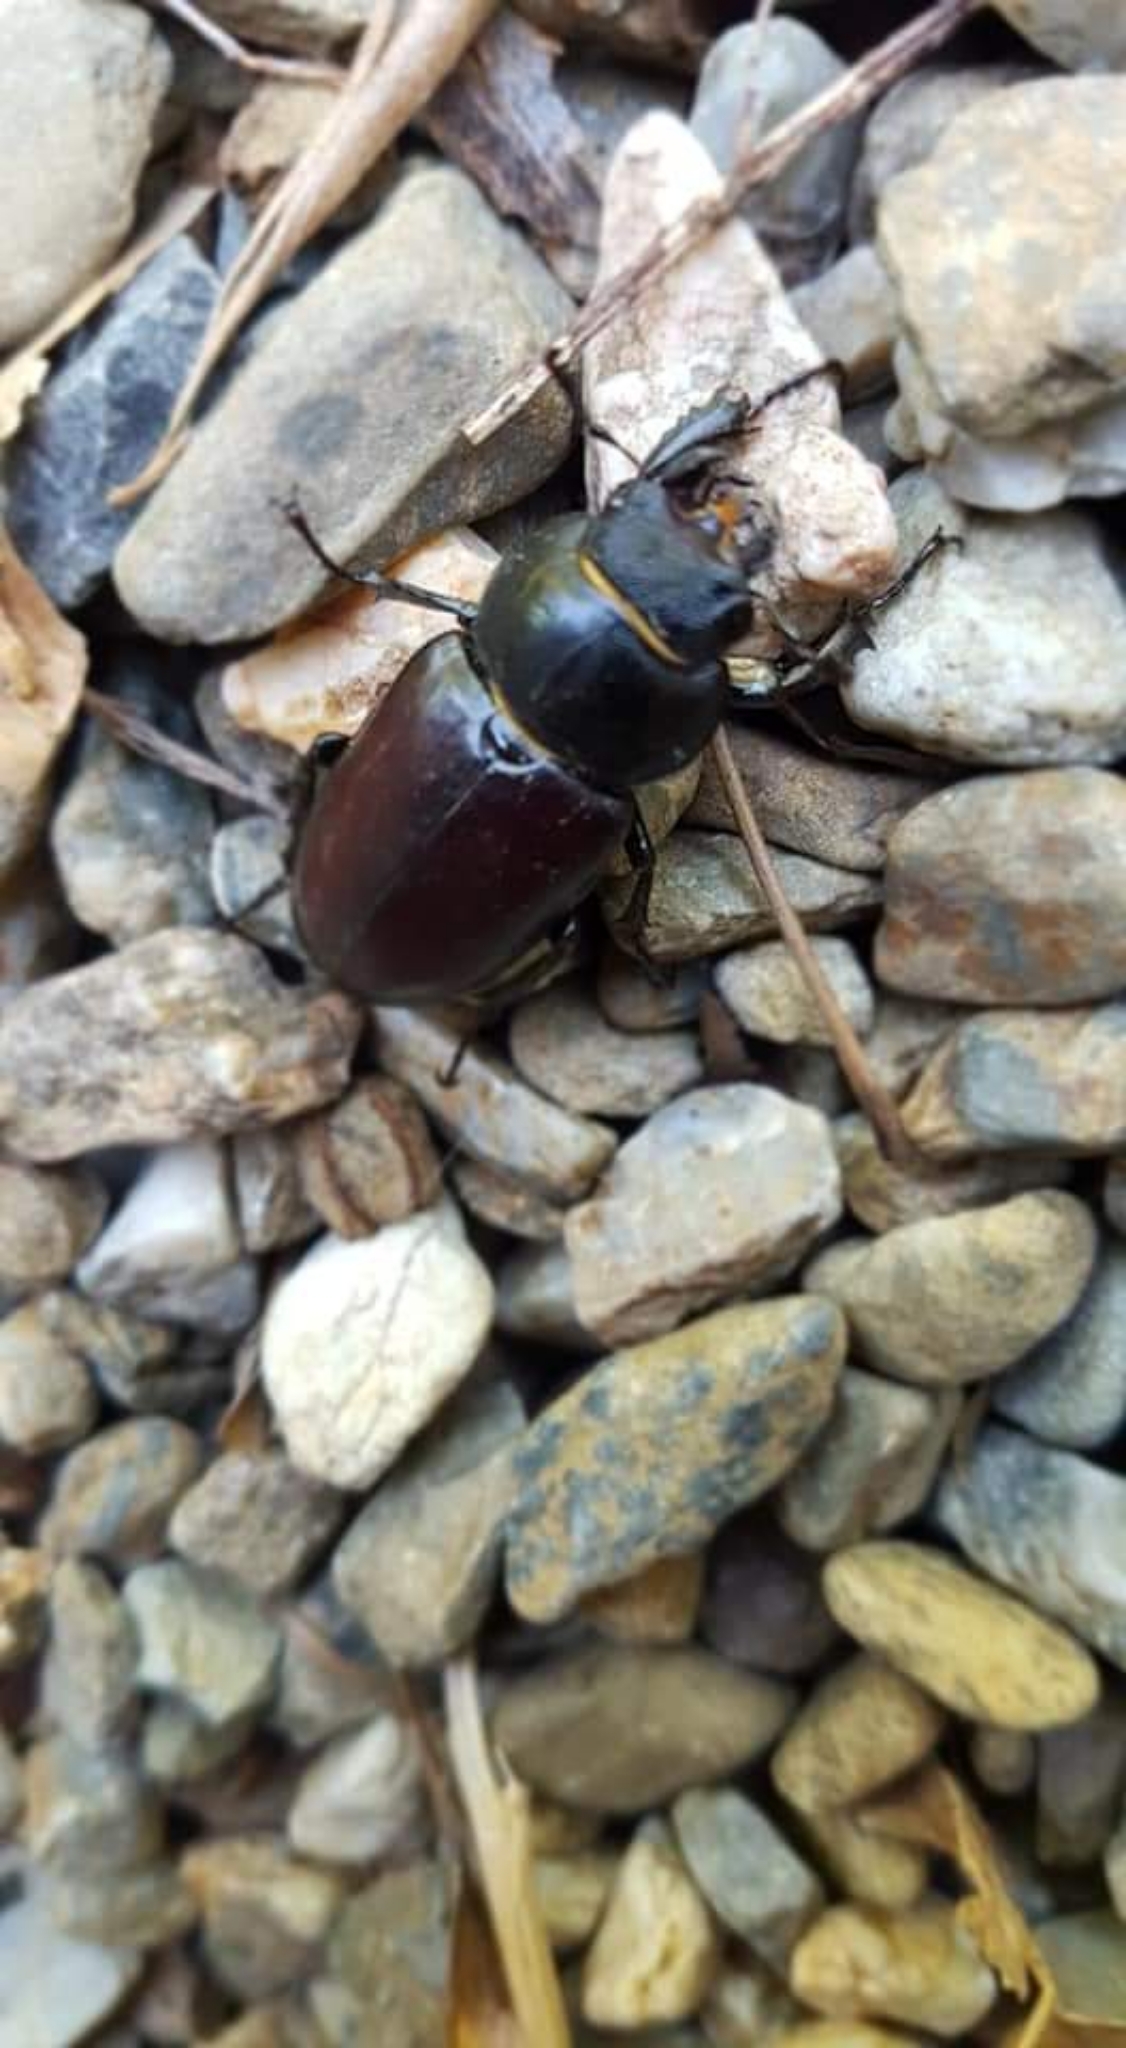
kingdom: Animalia
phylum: Arthropoda
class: Insecta
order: Coleoptera
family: Lucanidae
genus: Lucanus
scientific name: Lucanus cervus
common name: Stag beetle
